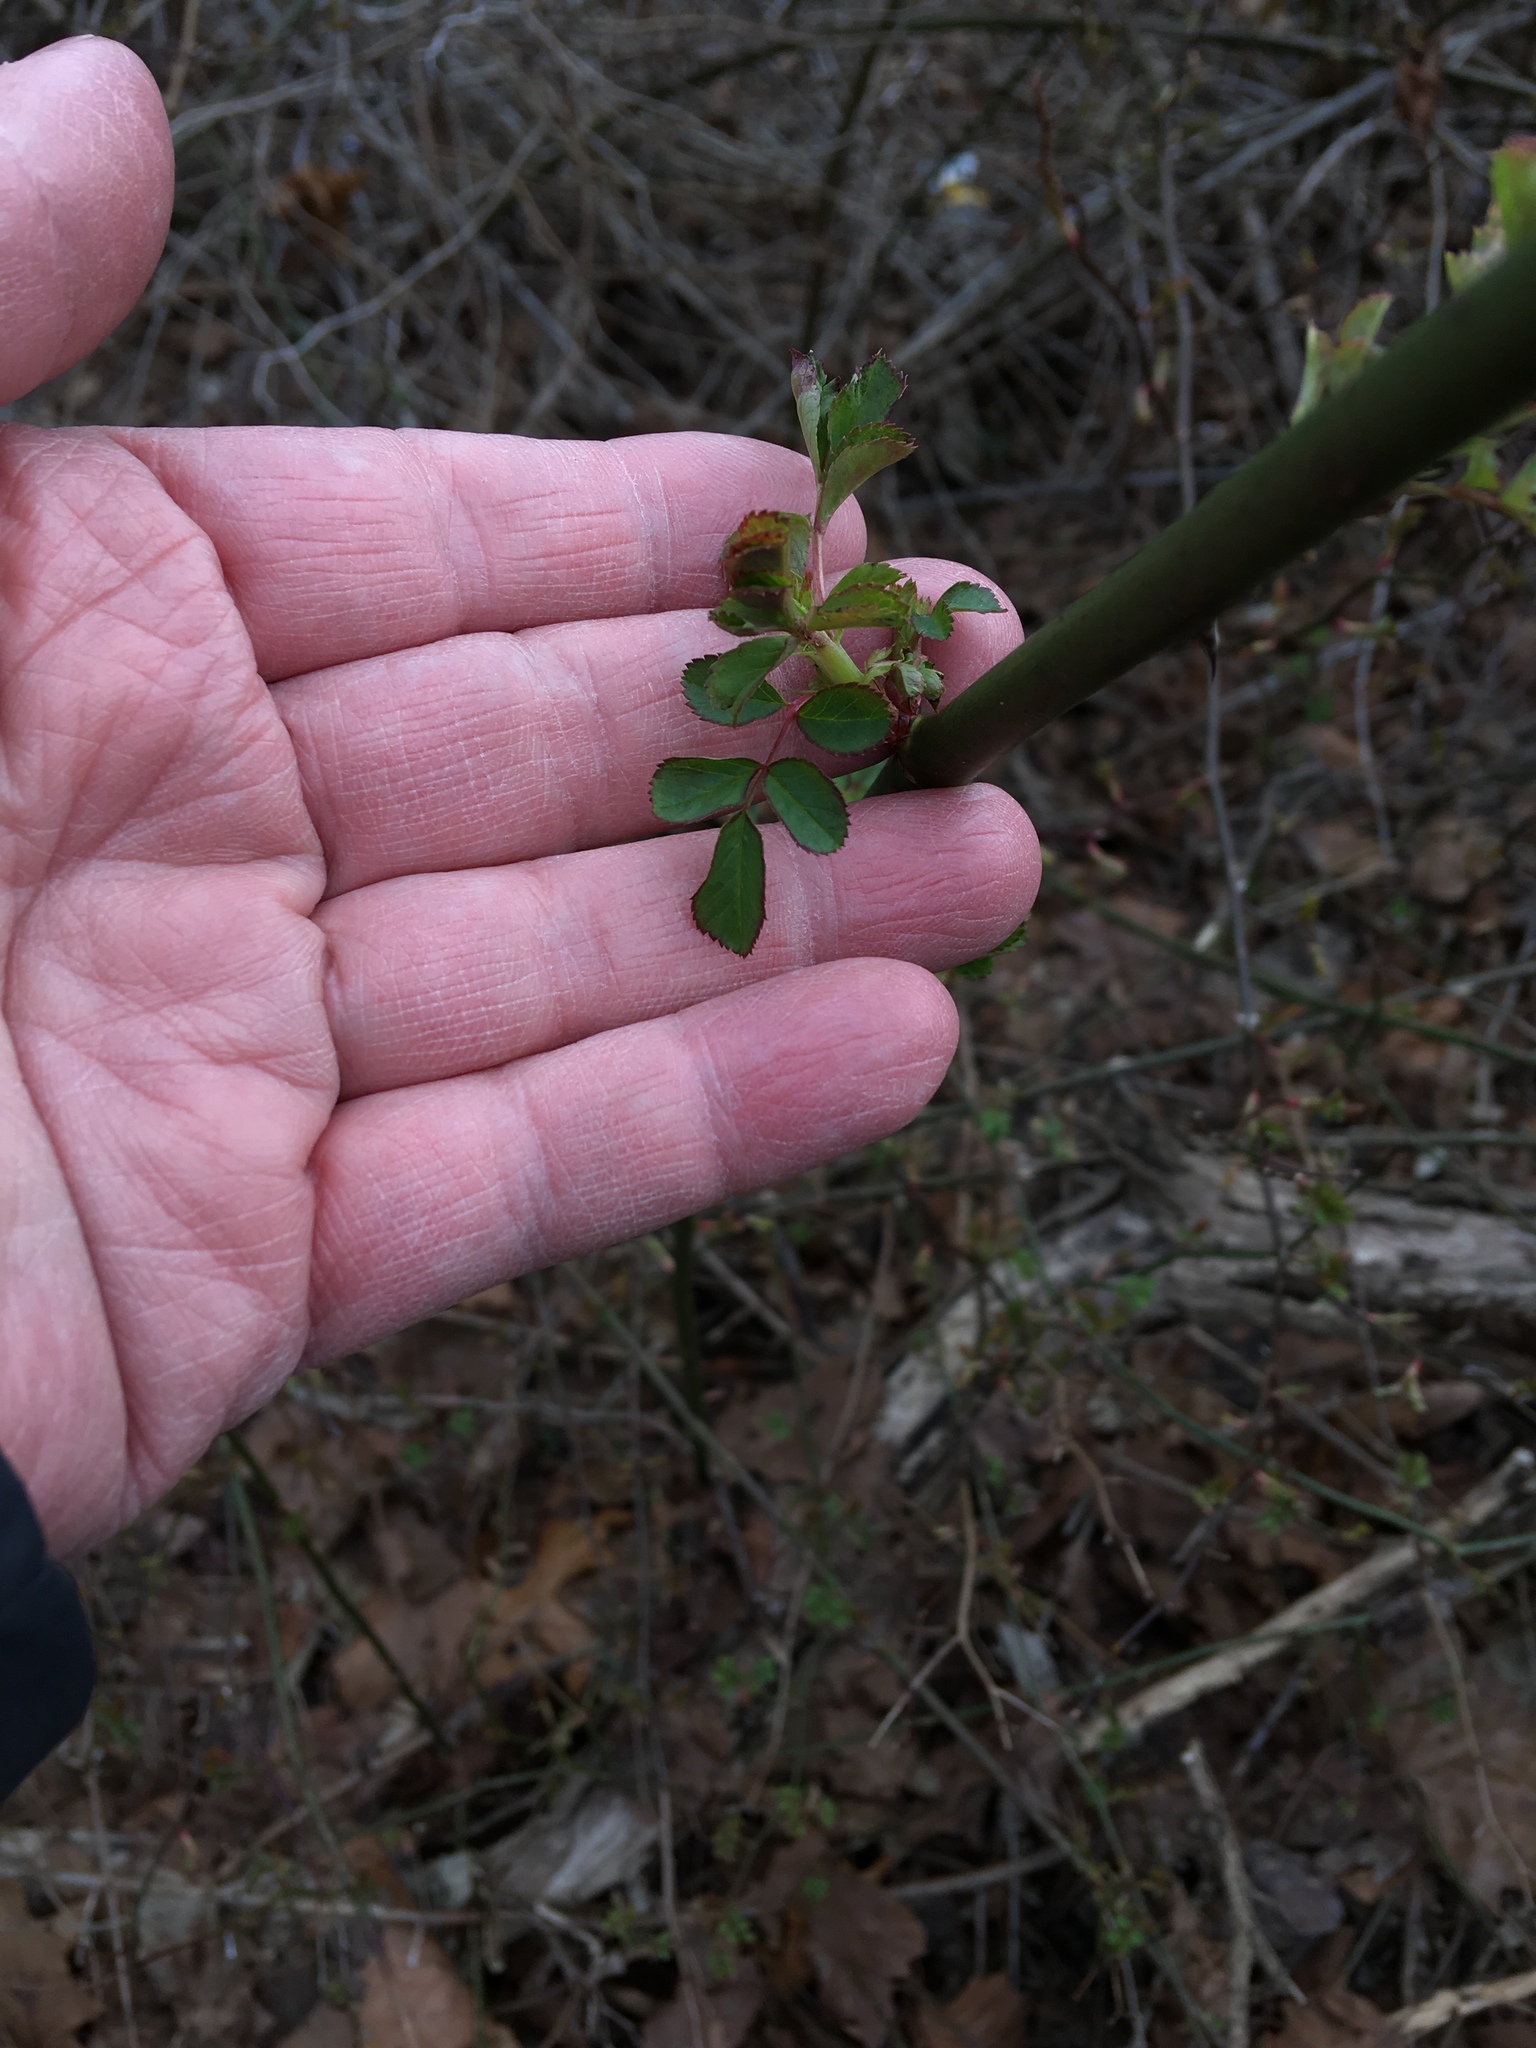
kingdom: Plantae
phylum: Tracheophyta
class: Magnoliopsida
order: Rosales
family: Rosaceae
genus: Rosa
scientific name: Rosa multiflora
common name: Multiflora rose
